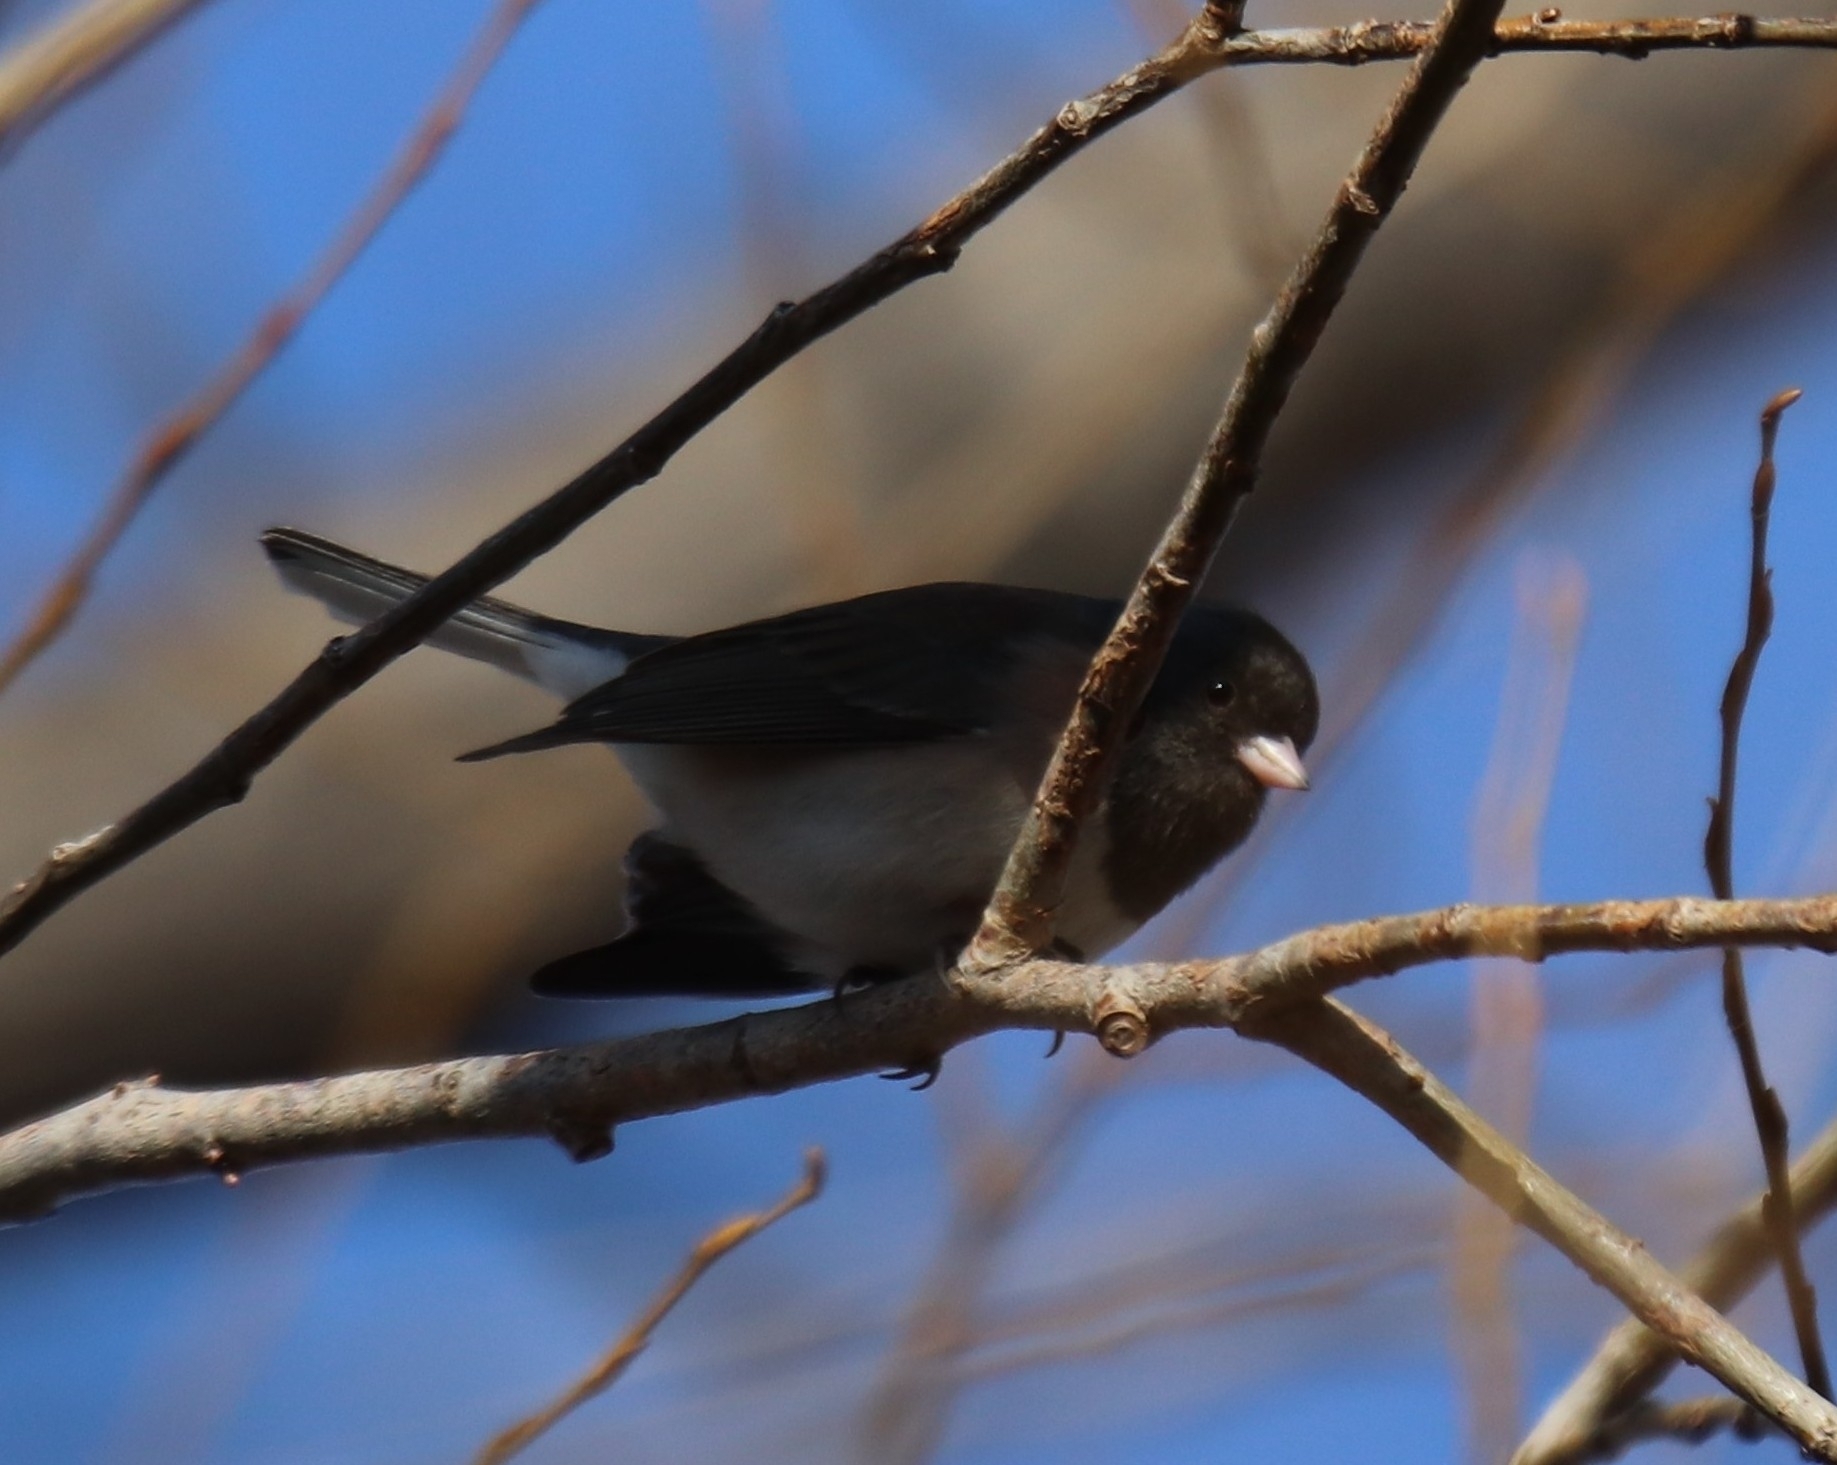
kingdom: Animalia
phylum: Chordata
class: Aves
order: Passeriformes
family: Passerellidae
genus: Junco
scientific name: Junco hyemalis
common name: Dark-eyed junco
